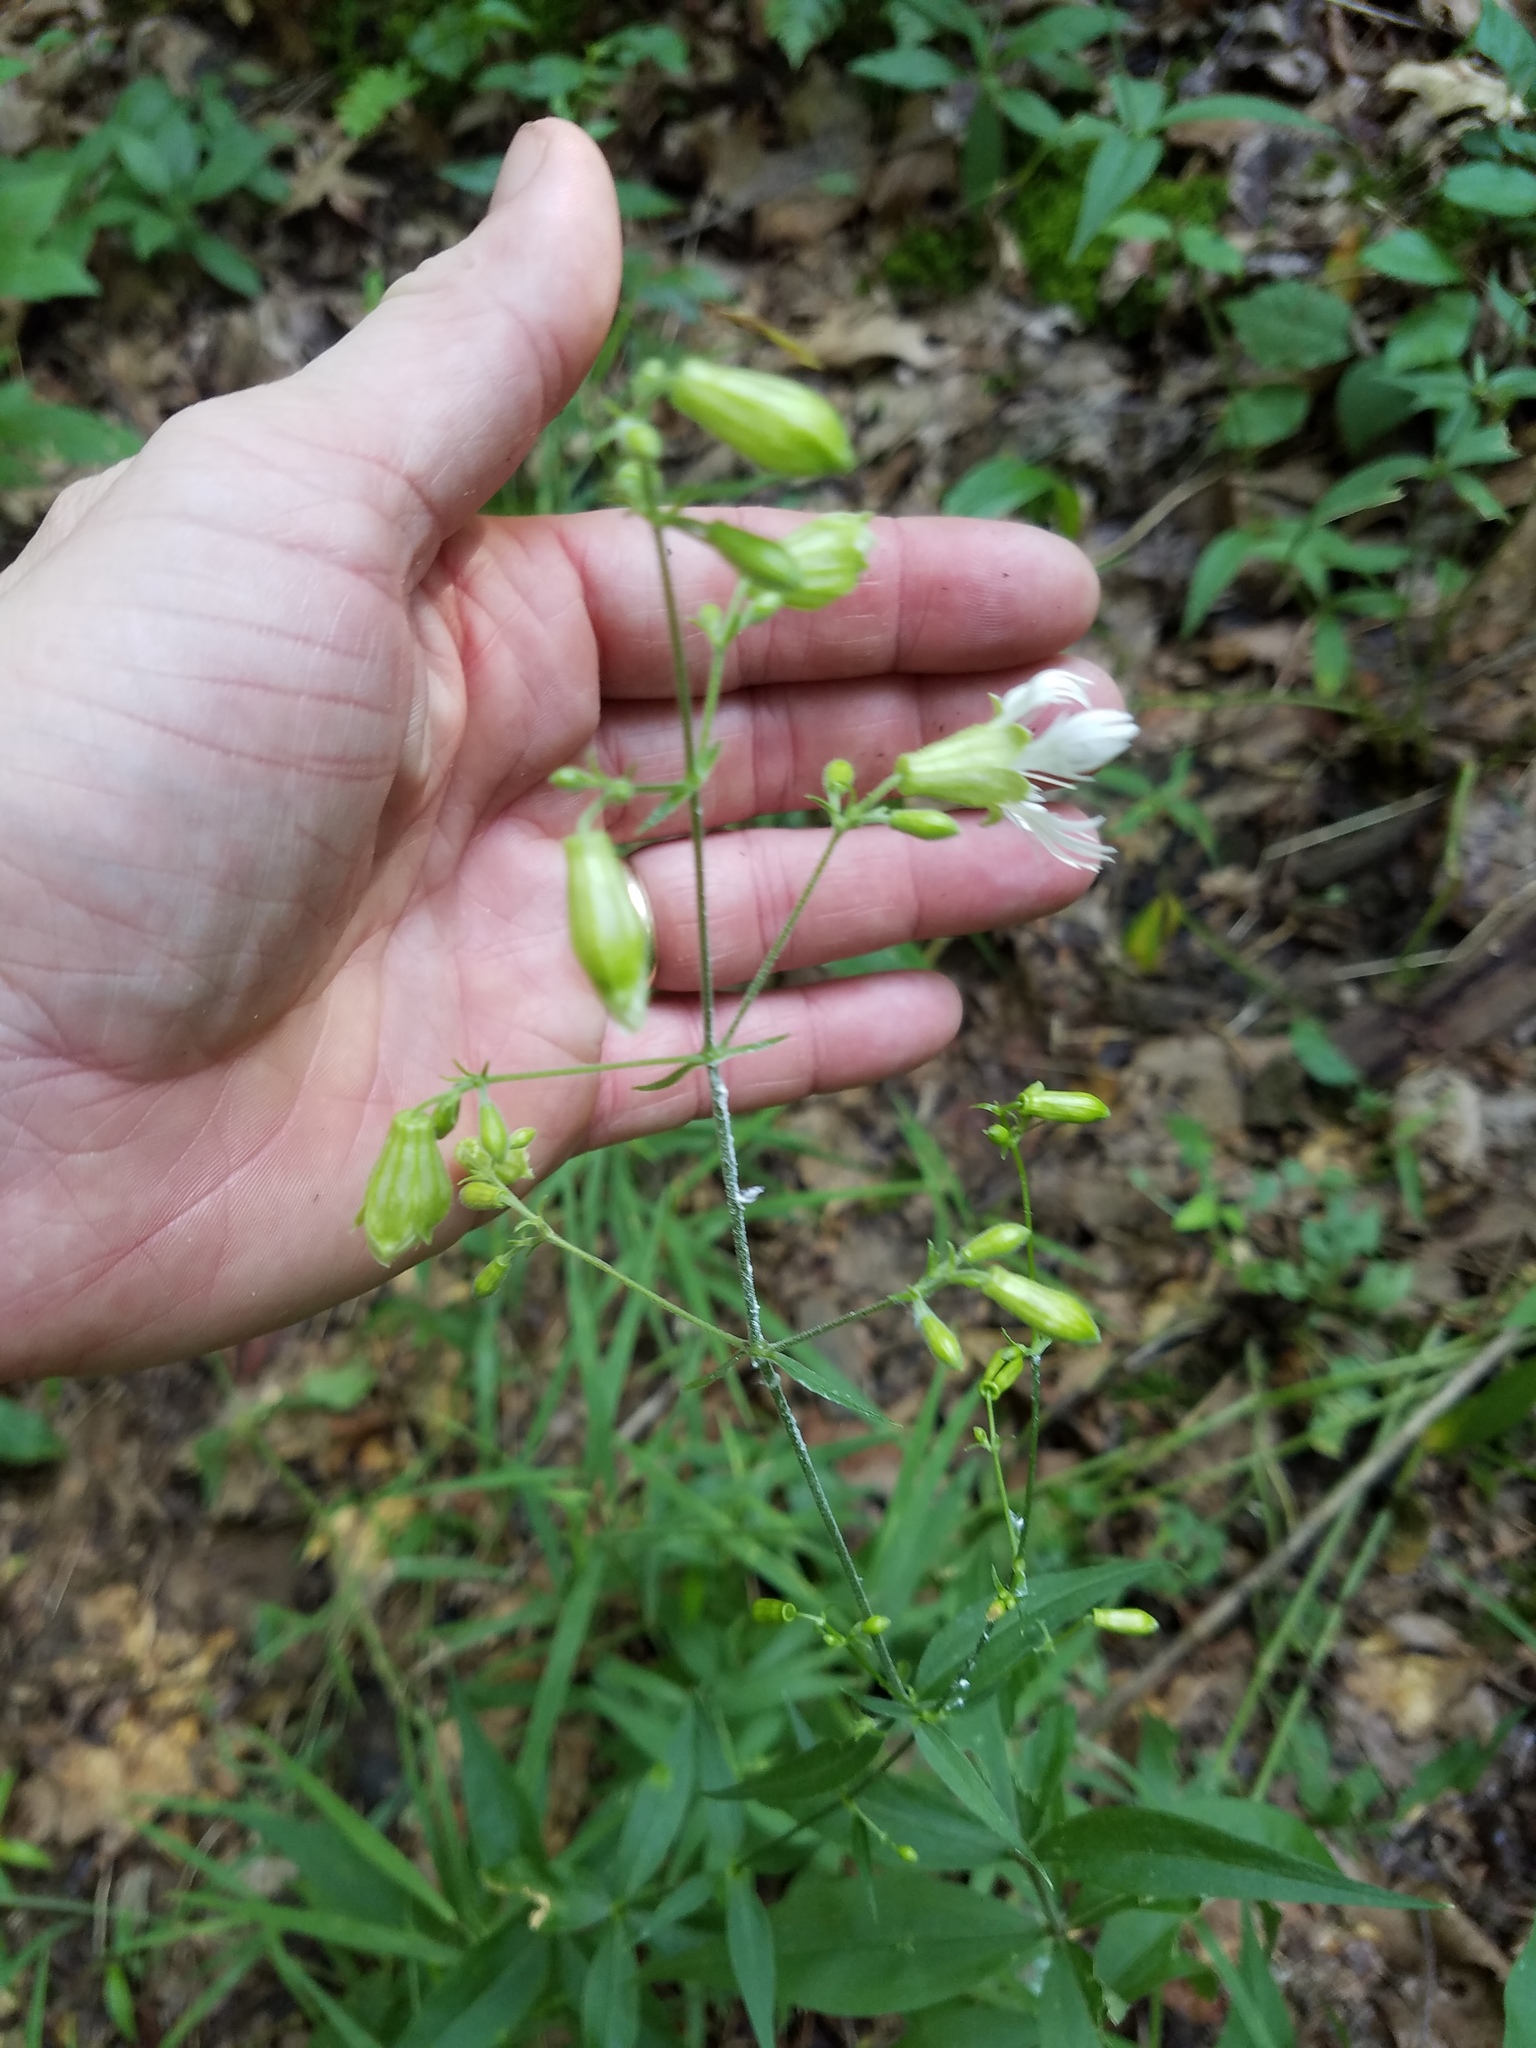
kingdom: Plantae
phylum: Tracheophyta
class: Magnoliopsida
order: Caryophyllales
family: Caryophyllaceae
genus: Silene
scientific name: Silene stellata
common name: Starry campion
